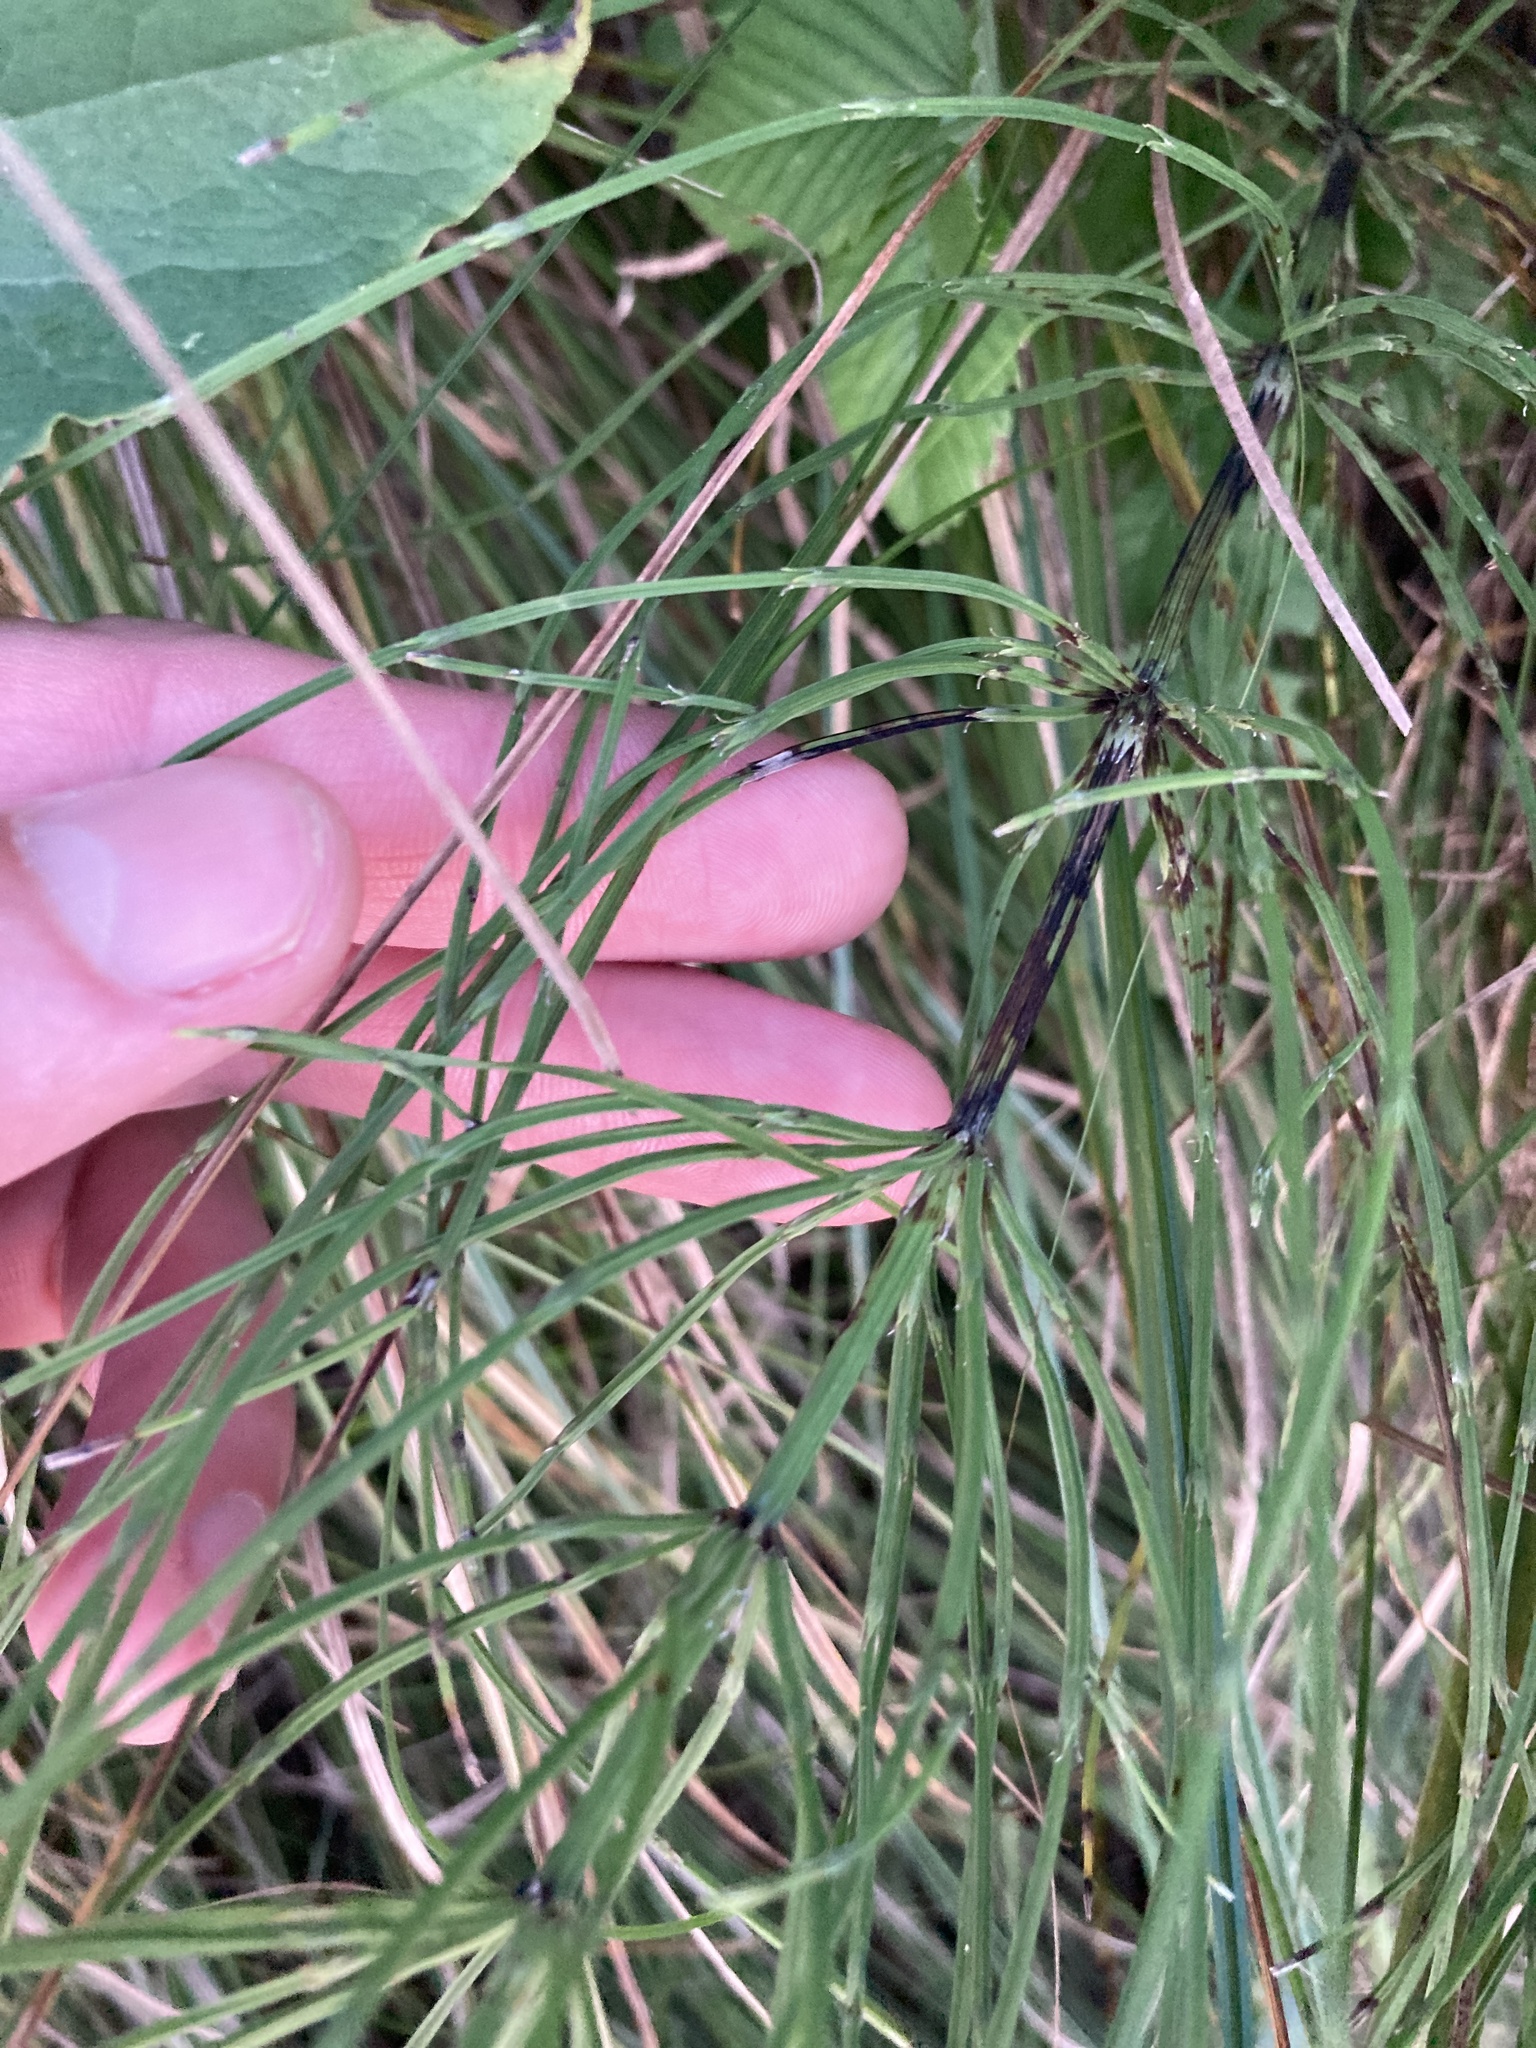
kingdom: Plantae
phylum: Tracheophyta
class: Polypodiopsida
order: Equisetales
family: Equisetaceae
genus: Equisetum
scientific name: Equisetum arvense
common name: Field horsetail
